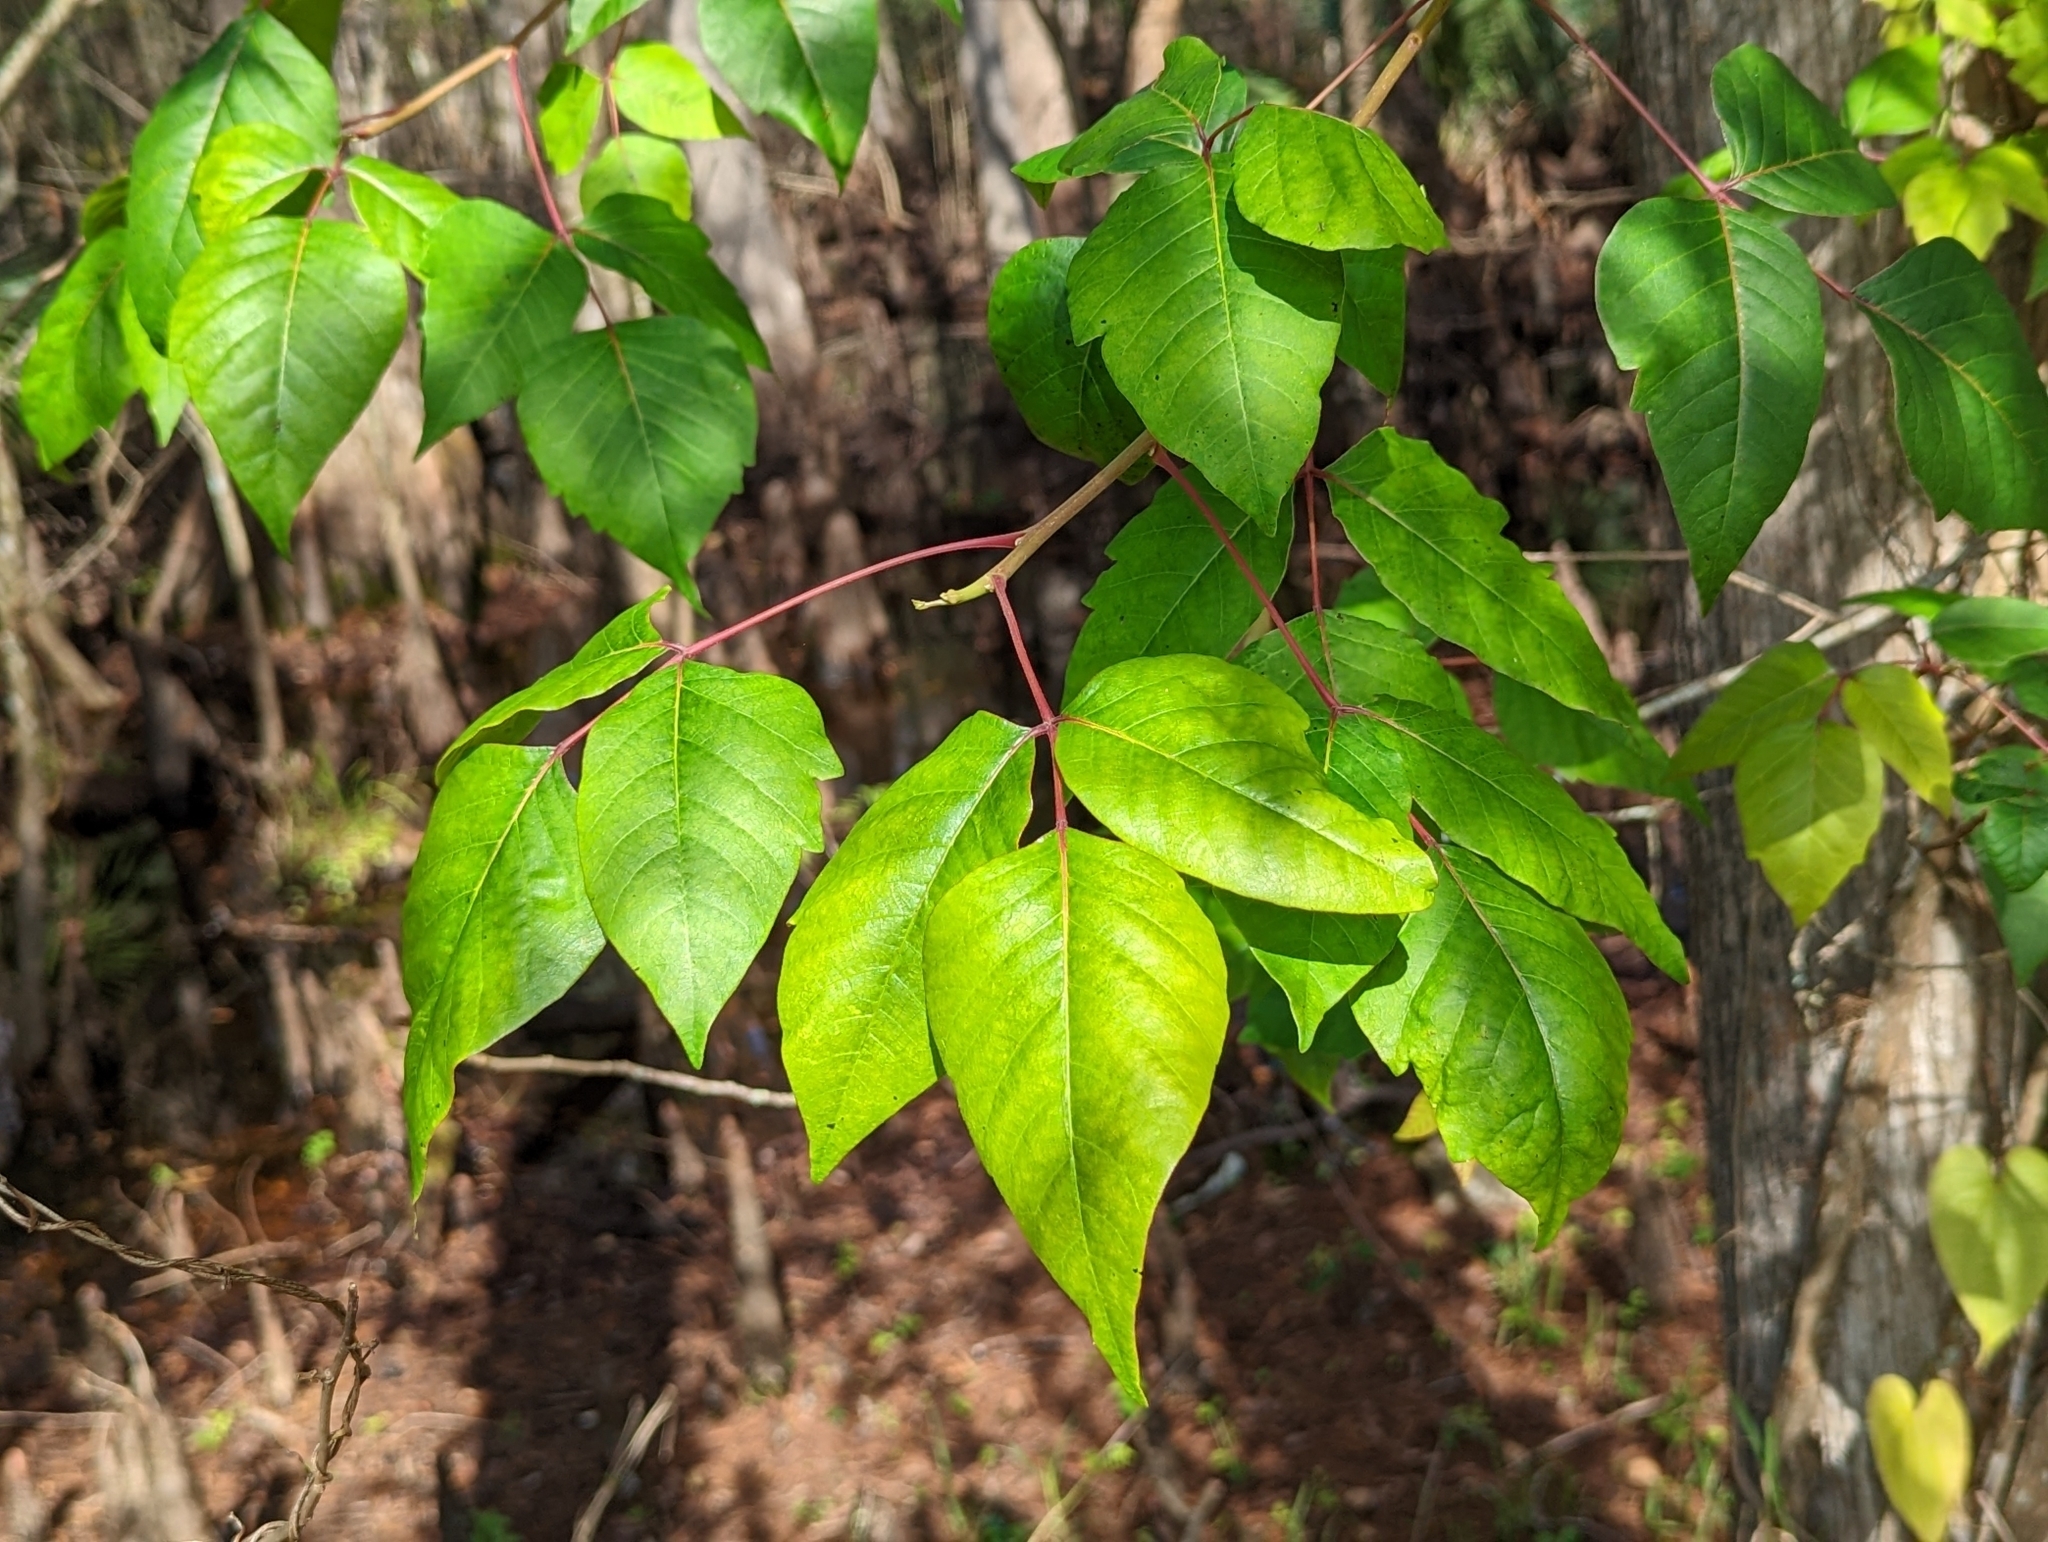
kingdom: Plantae
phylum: Tracheophyta
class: Magnoliopsida
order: Sapindales
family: Anacardiaceae
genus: Toxicodendron
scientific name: Toxicodendron radicans
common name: Poison ivy
